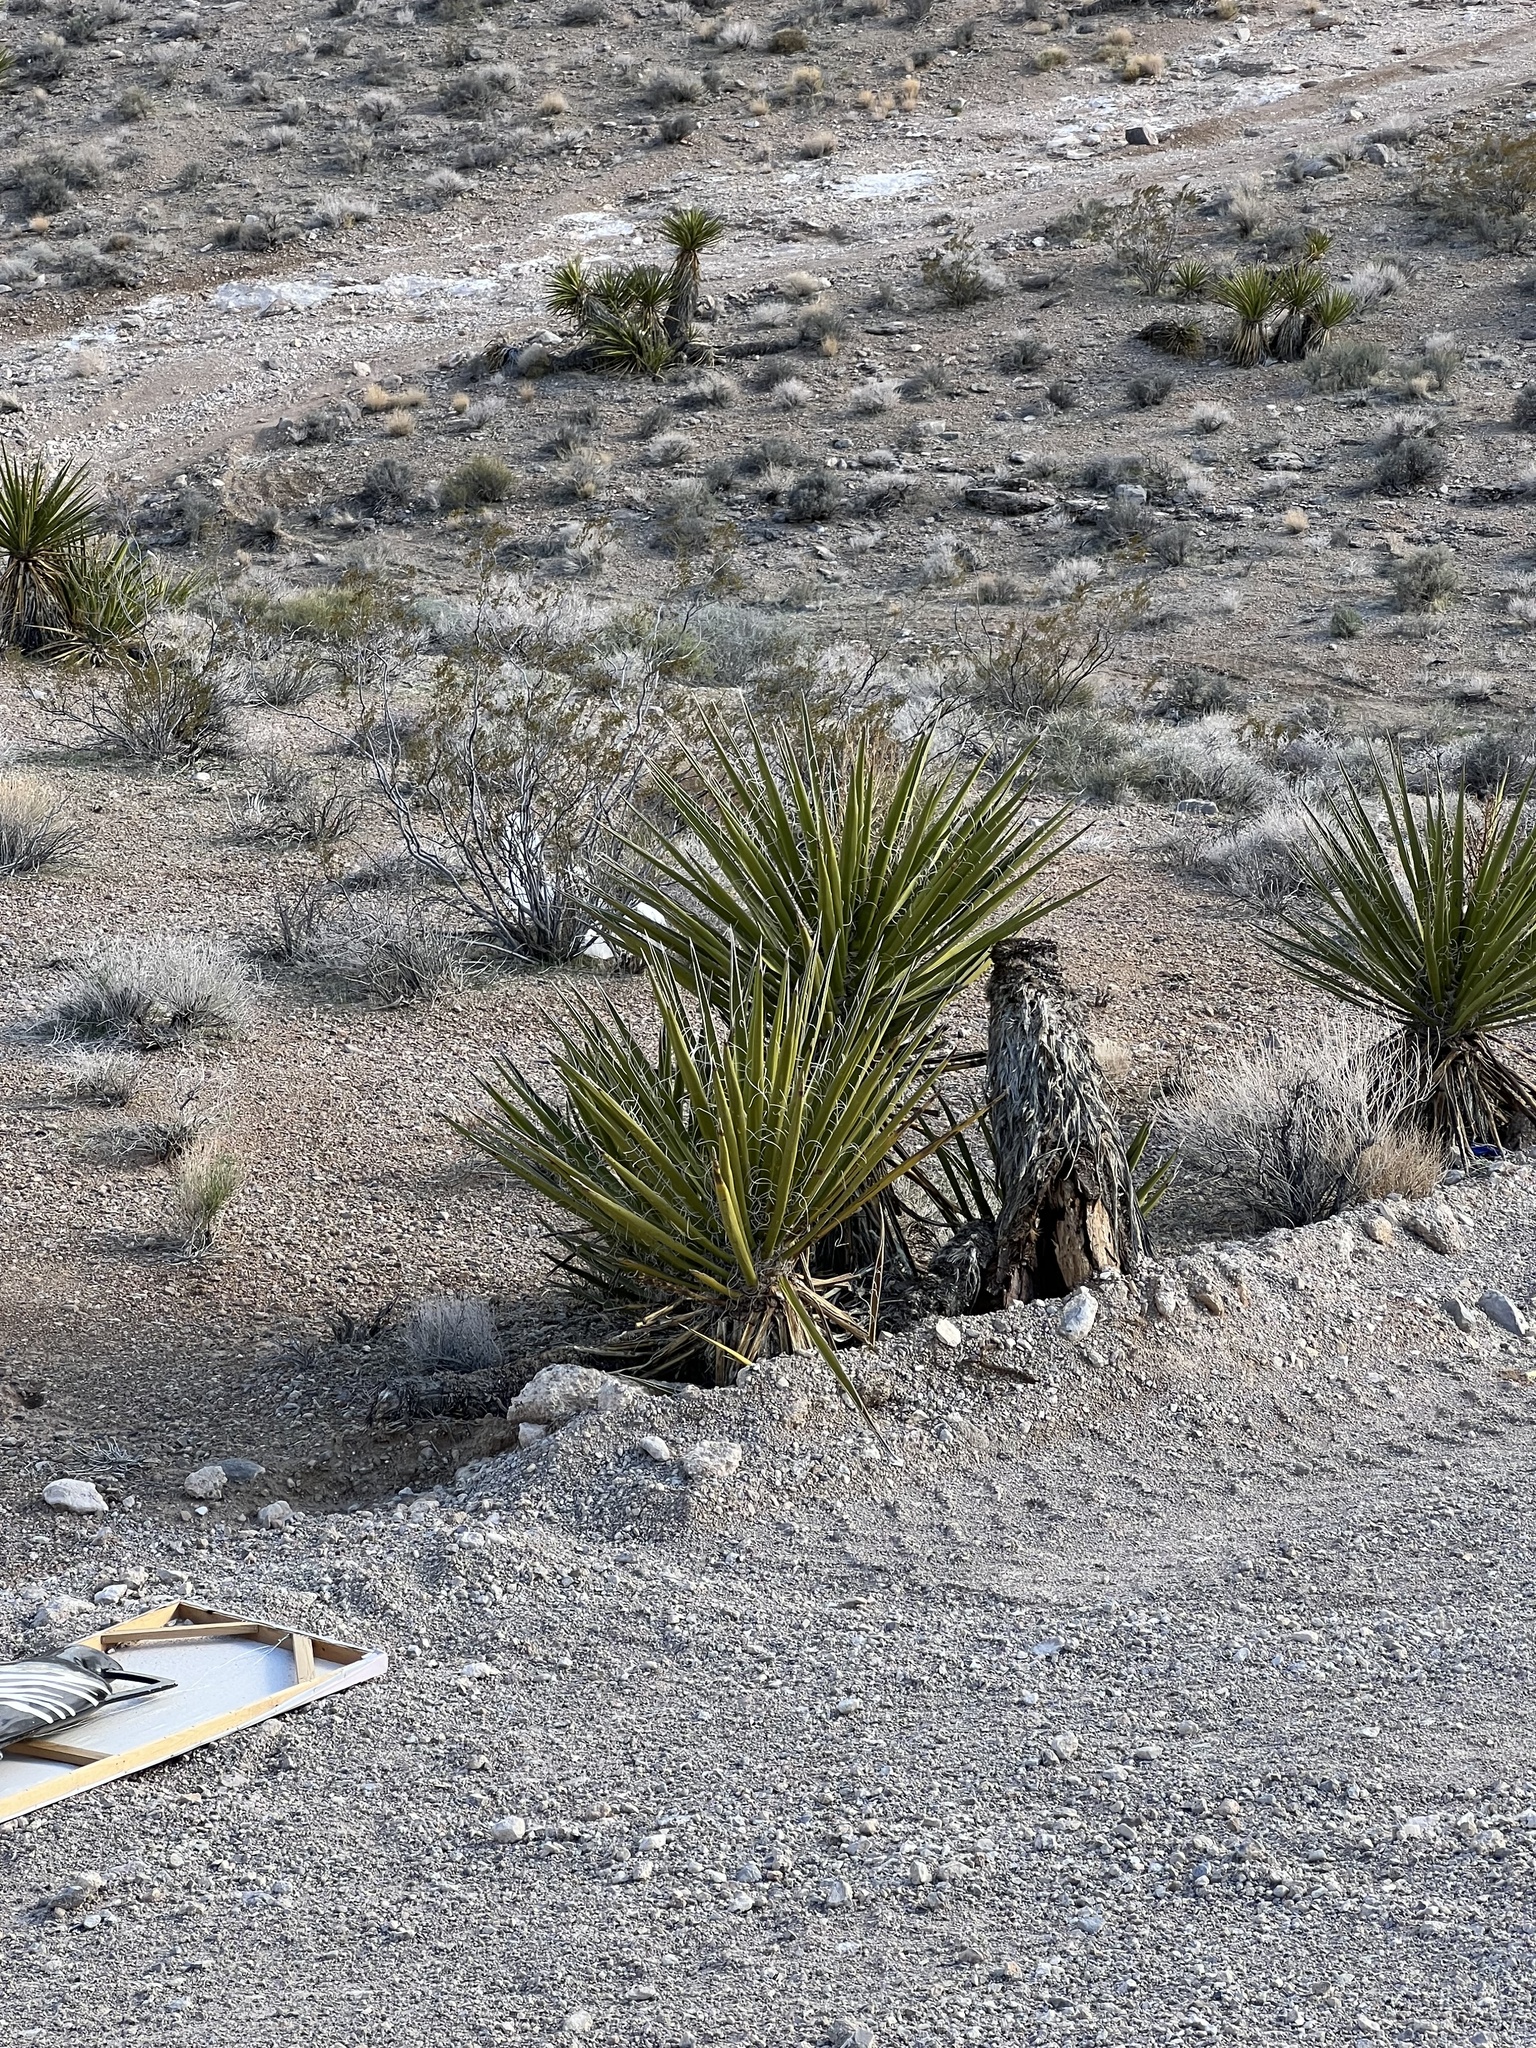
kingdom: Plantae
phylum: Tracheophyta
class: Liliopsida
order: Asparagales
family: Asparagaceae
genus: Yucca
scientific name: Yucca schidigera
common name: Mojave yucca
